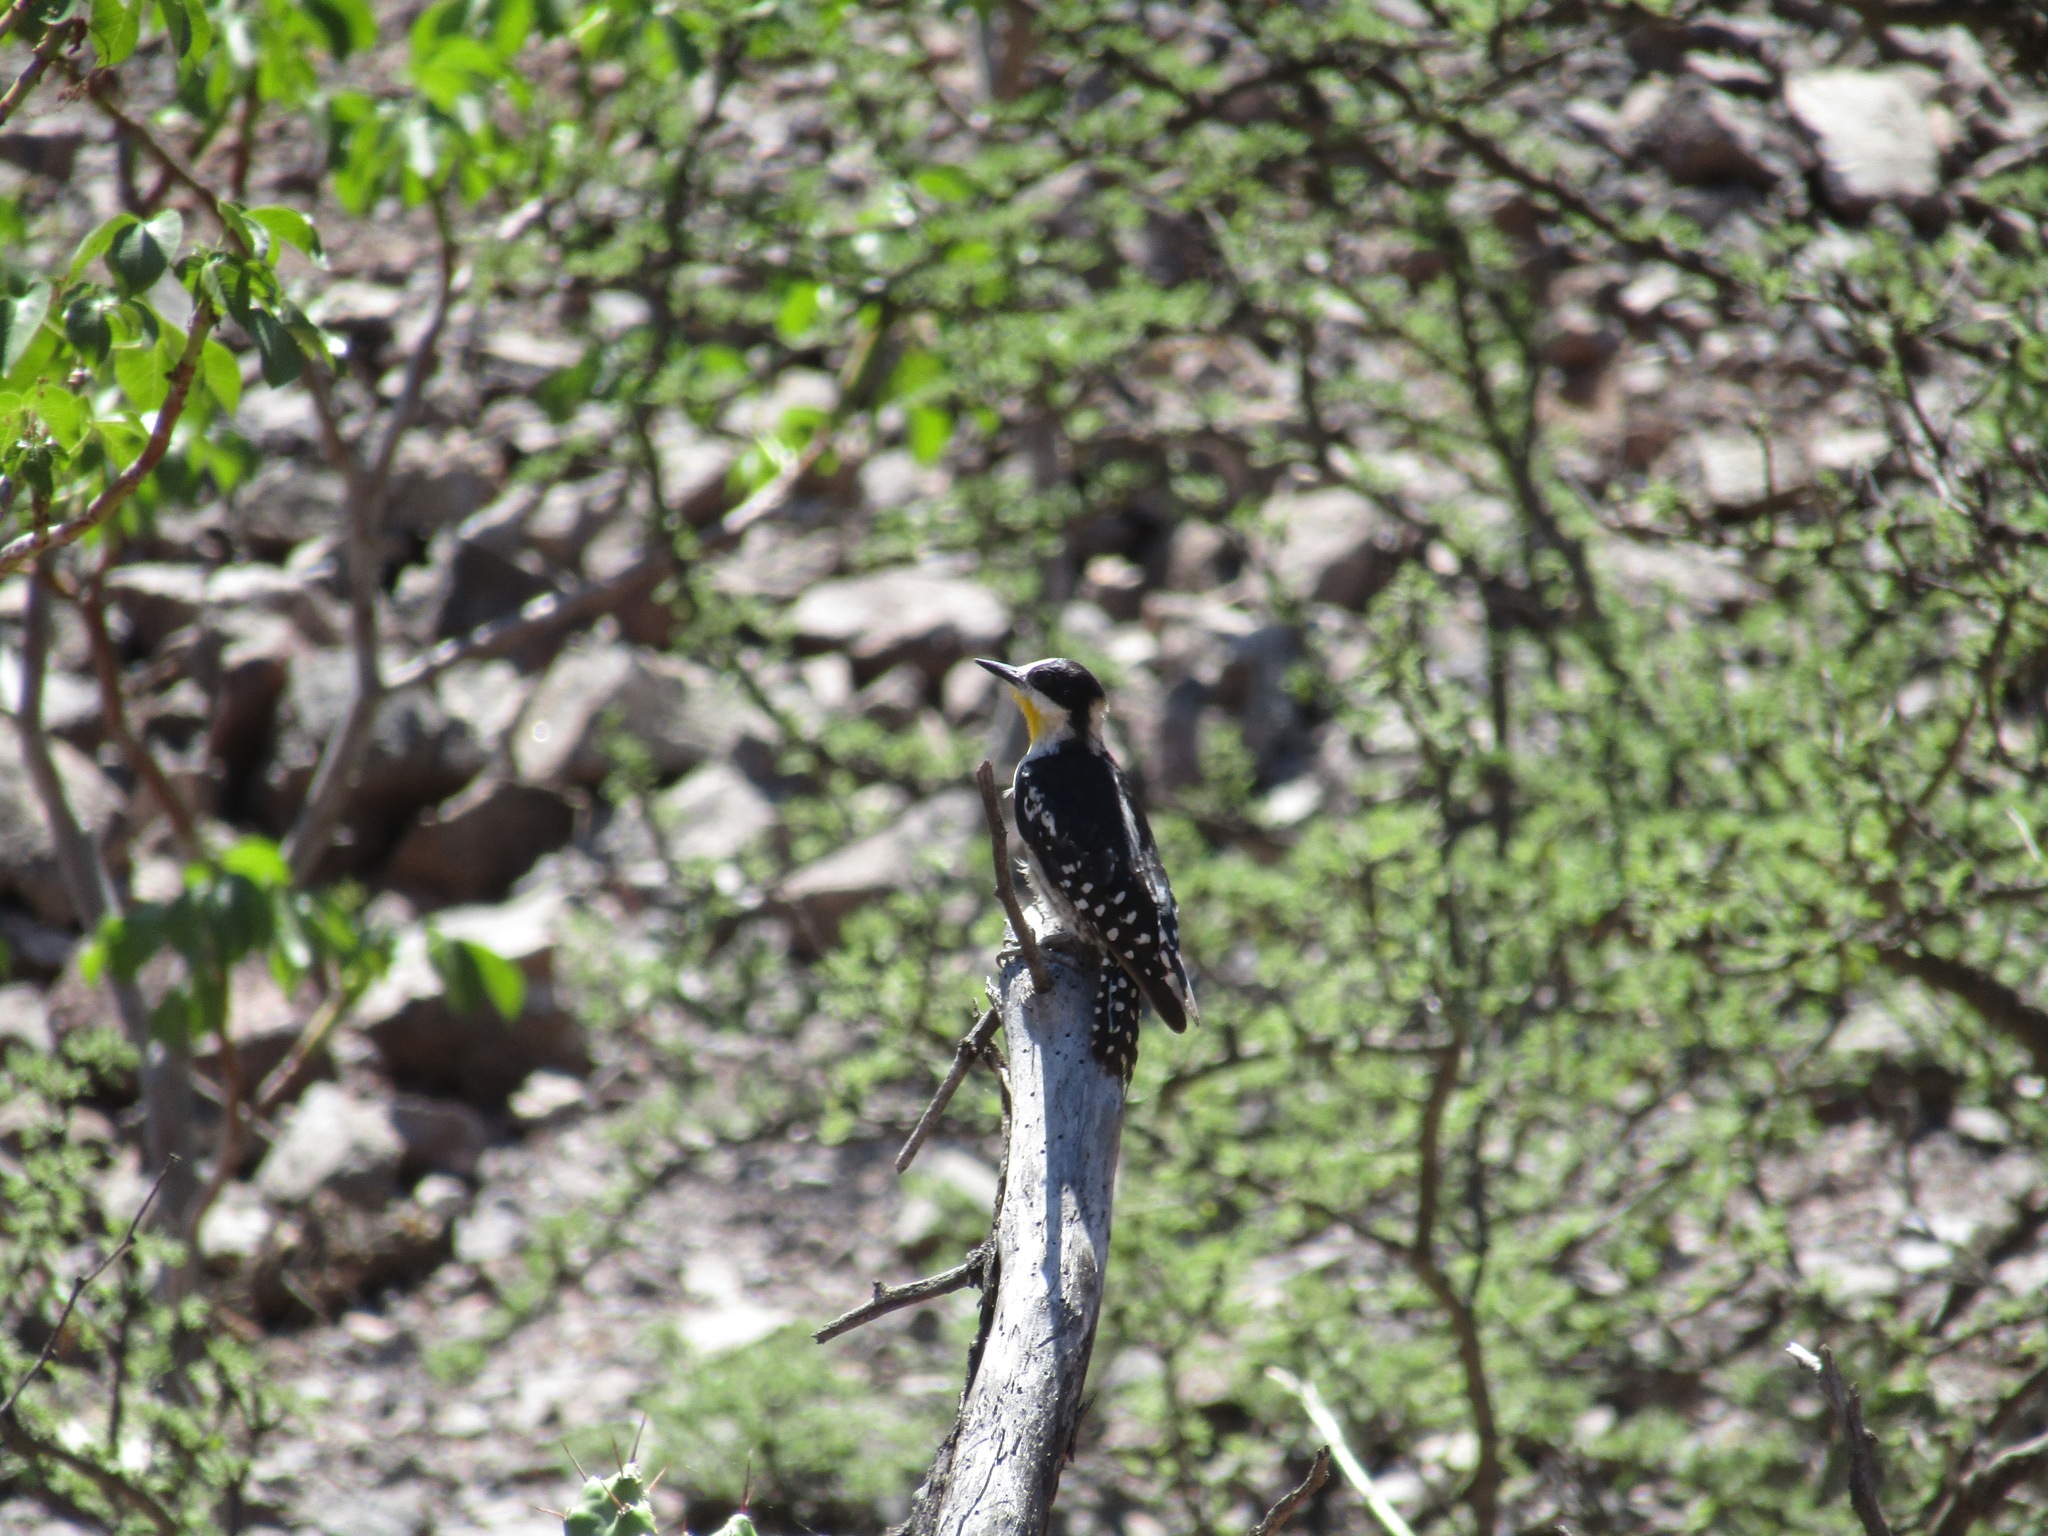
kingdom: Animalia
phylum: Chordata
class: Aves
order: Piciformes
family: Picidae
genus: Melanerpes
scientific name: Melanerpes cactorum
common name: White-fronted woodpecker
